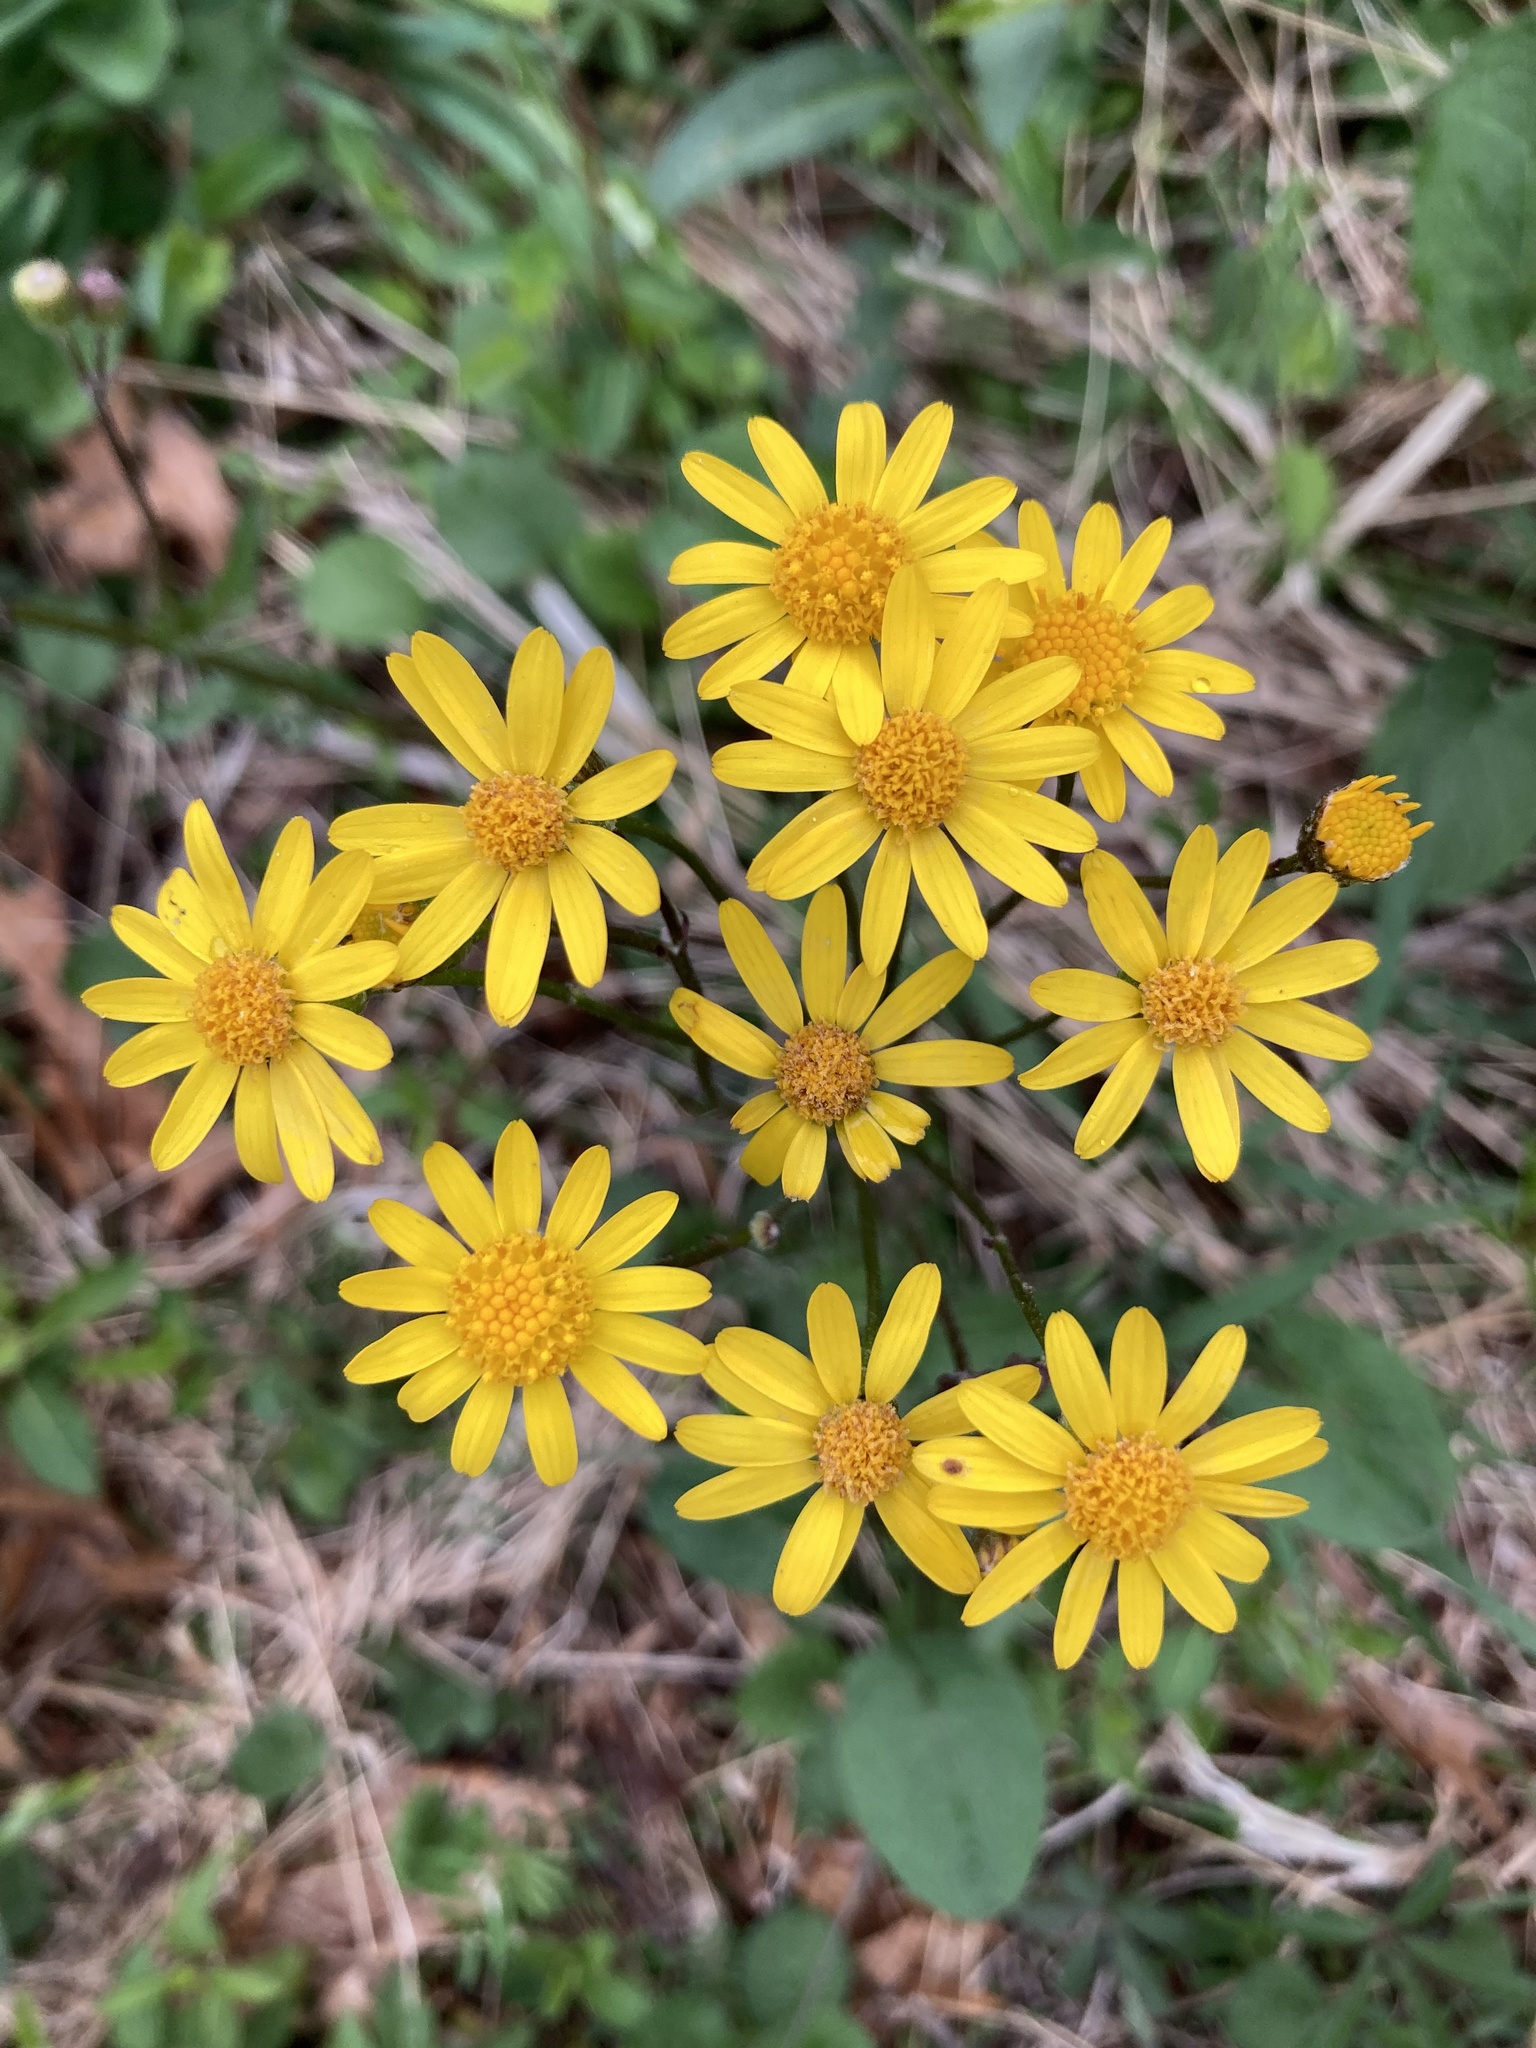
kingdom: Plantae
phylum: Tracheophyta
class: Magnoliopsida
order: Asterales
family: Asteraceae
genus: Packera
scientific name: Packera aurea
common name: Golden groundsel
